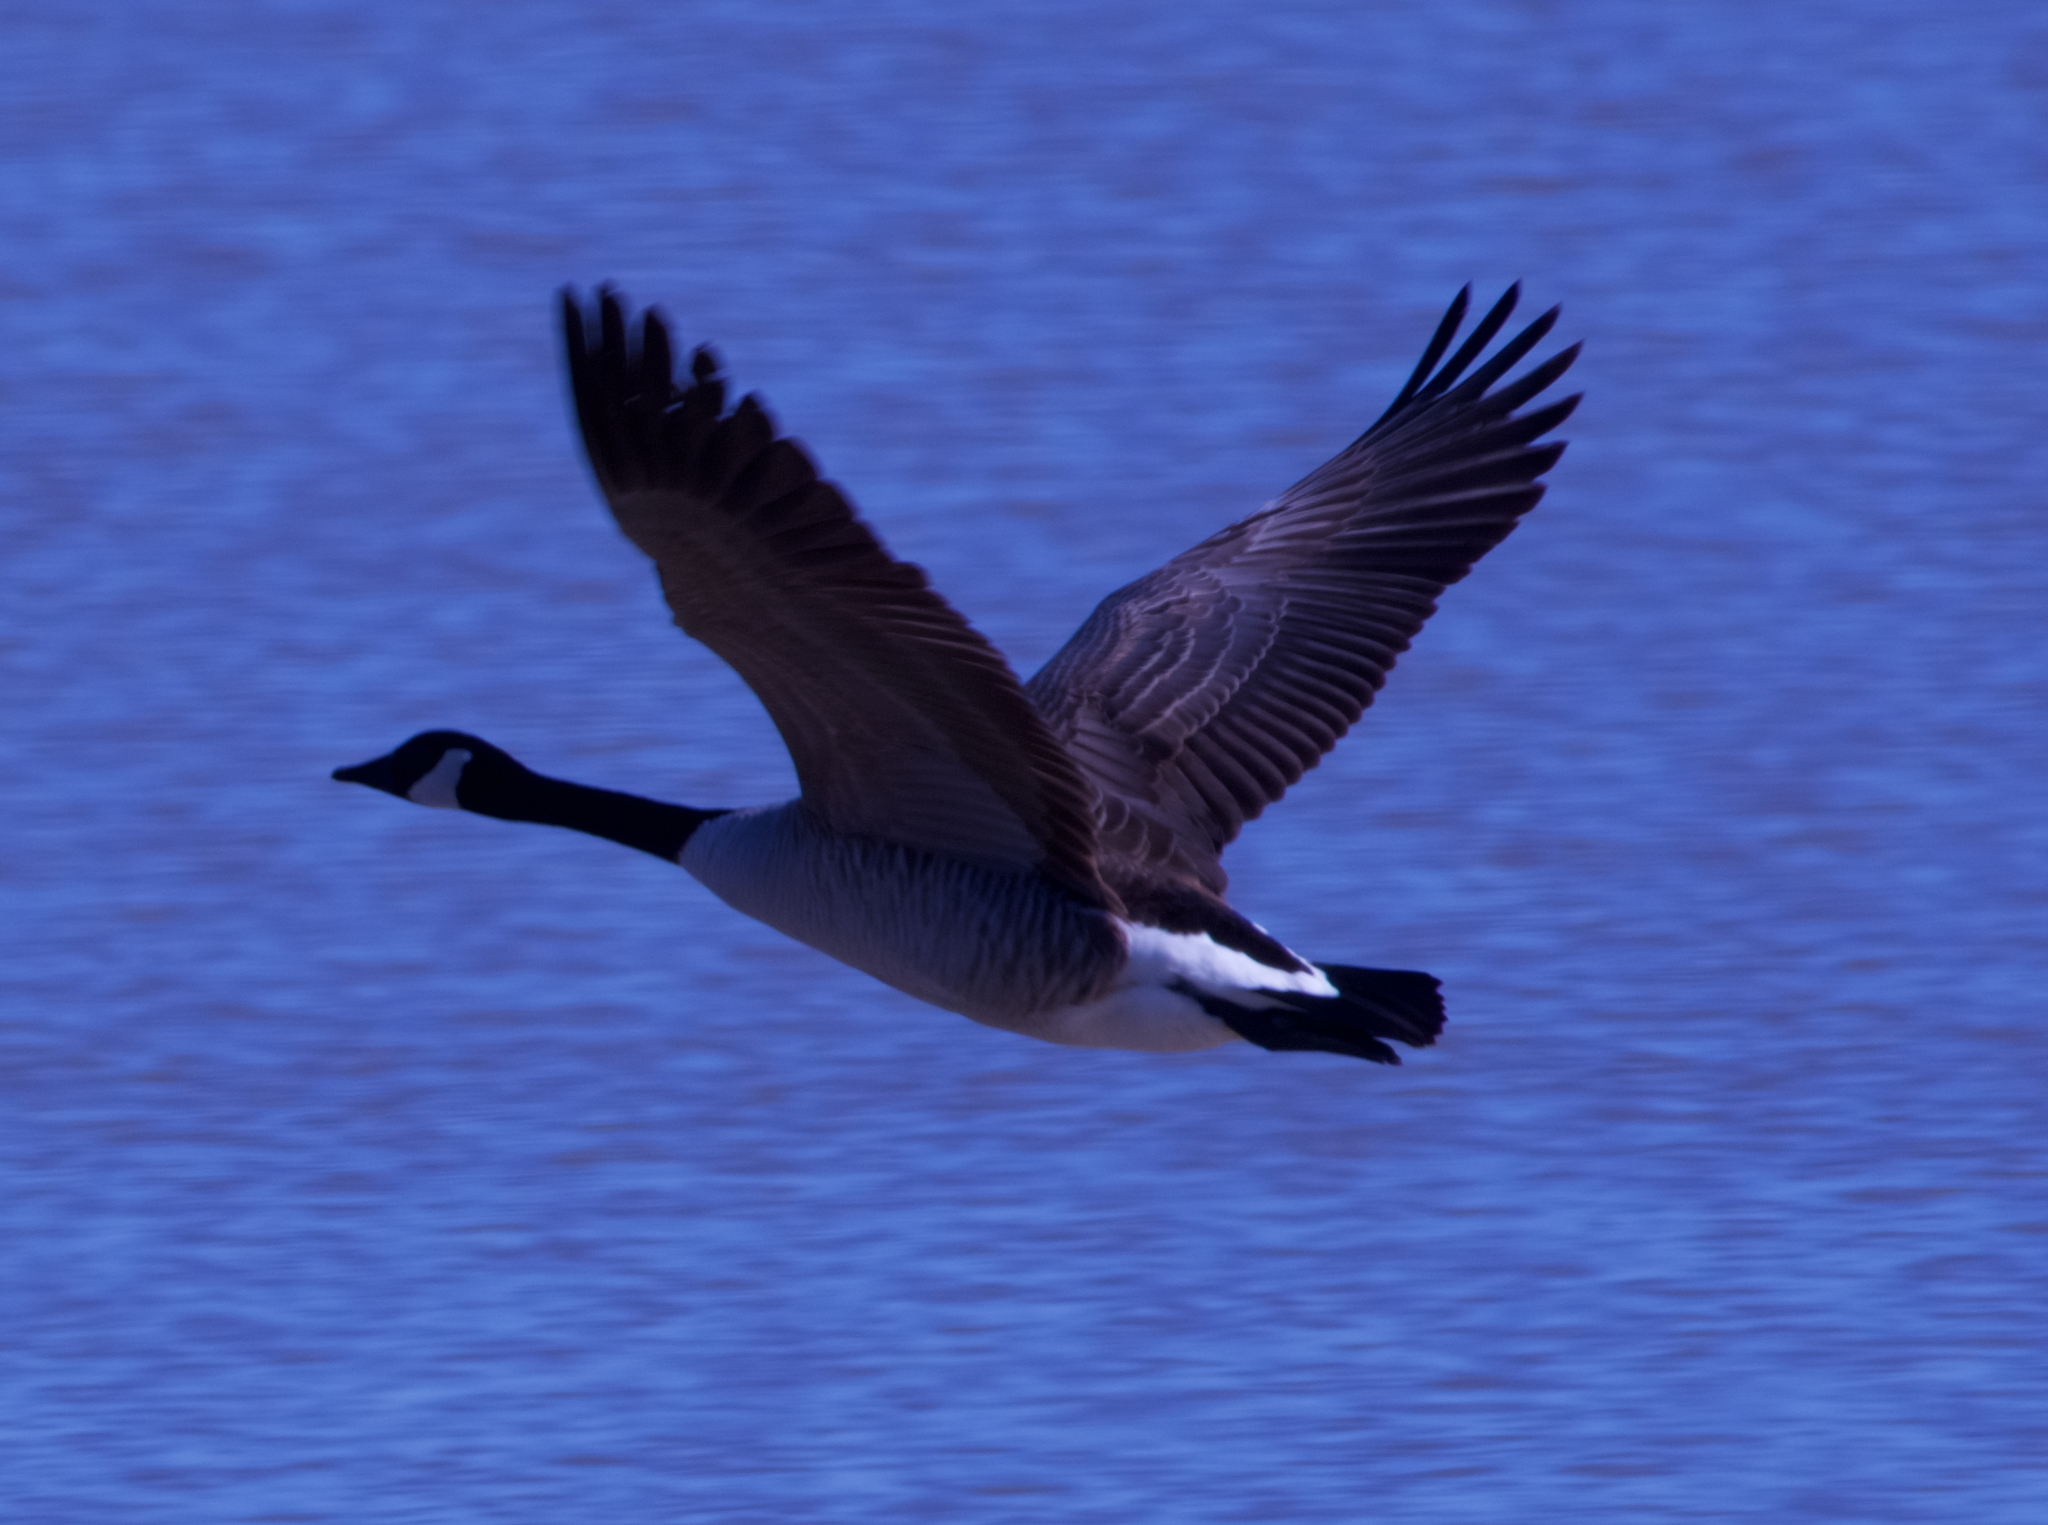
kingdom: Animalia
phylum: Chordata
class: Aves
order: Anseriformes
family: Anatidae
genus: Branta
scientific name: Branta canadensis
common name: Canada goose
